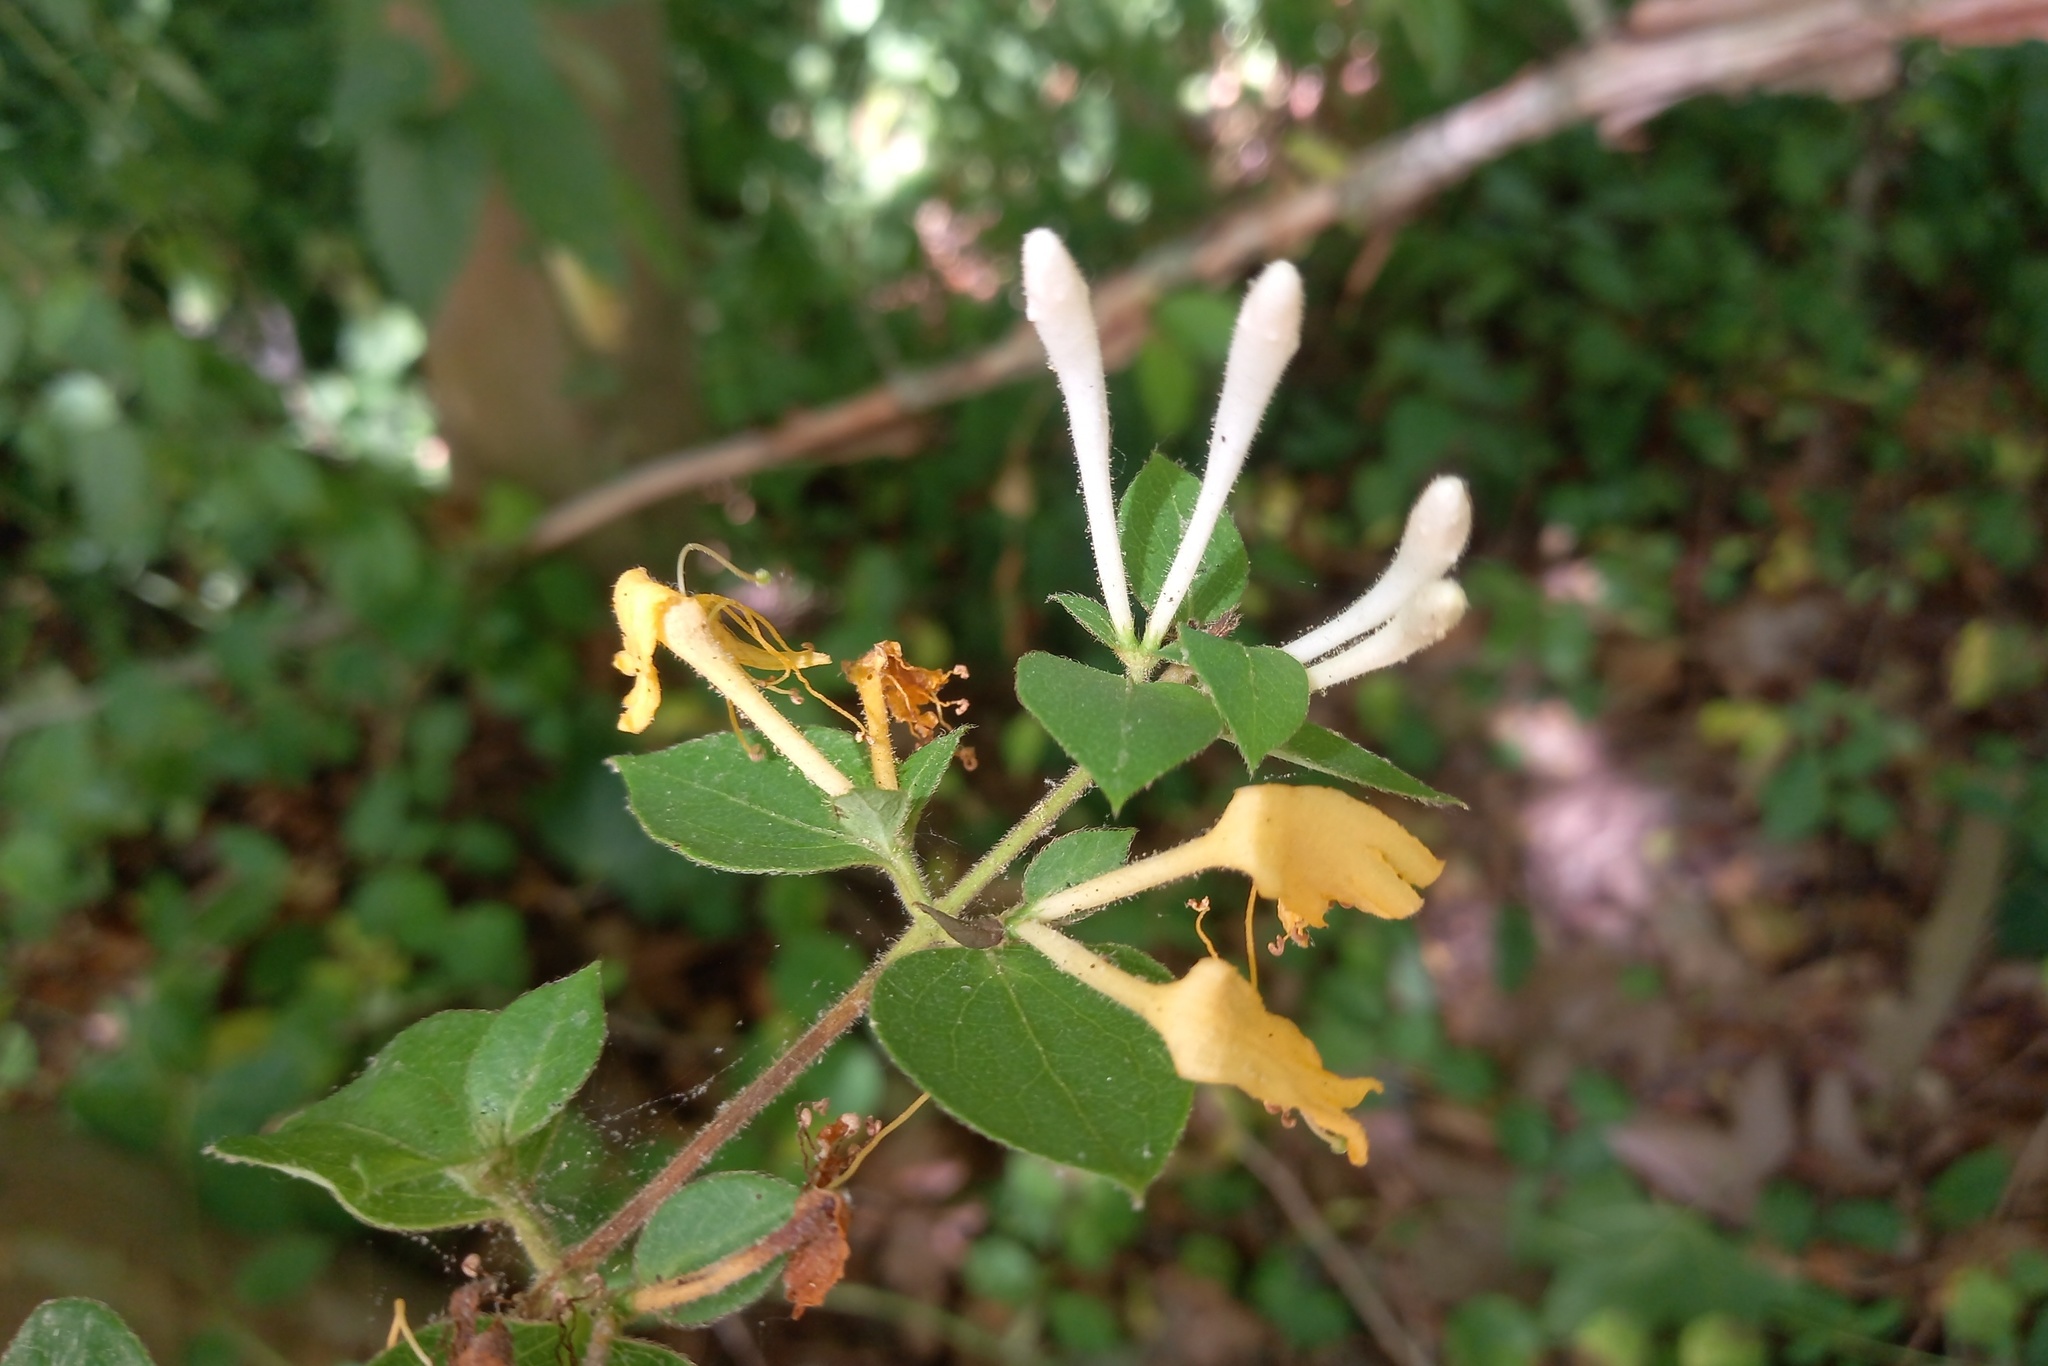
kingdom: Plantae
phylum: Tracheophyta
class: Magnoliopsida
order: Dipsacales
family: Caprifoliaceae
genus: Lonicera
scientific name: Lonicera japonica
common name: Japanese honeysuckle
